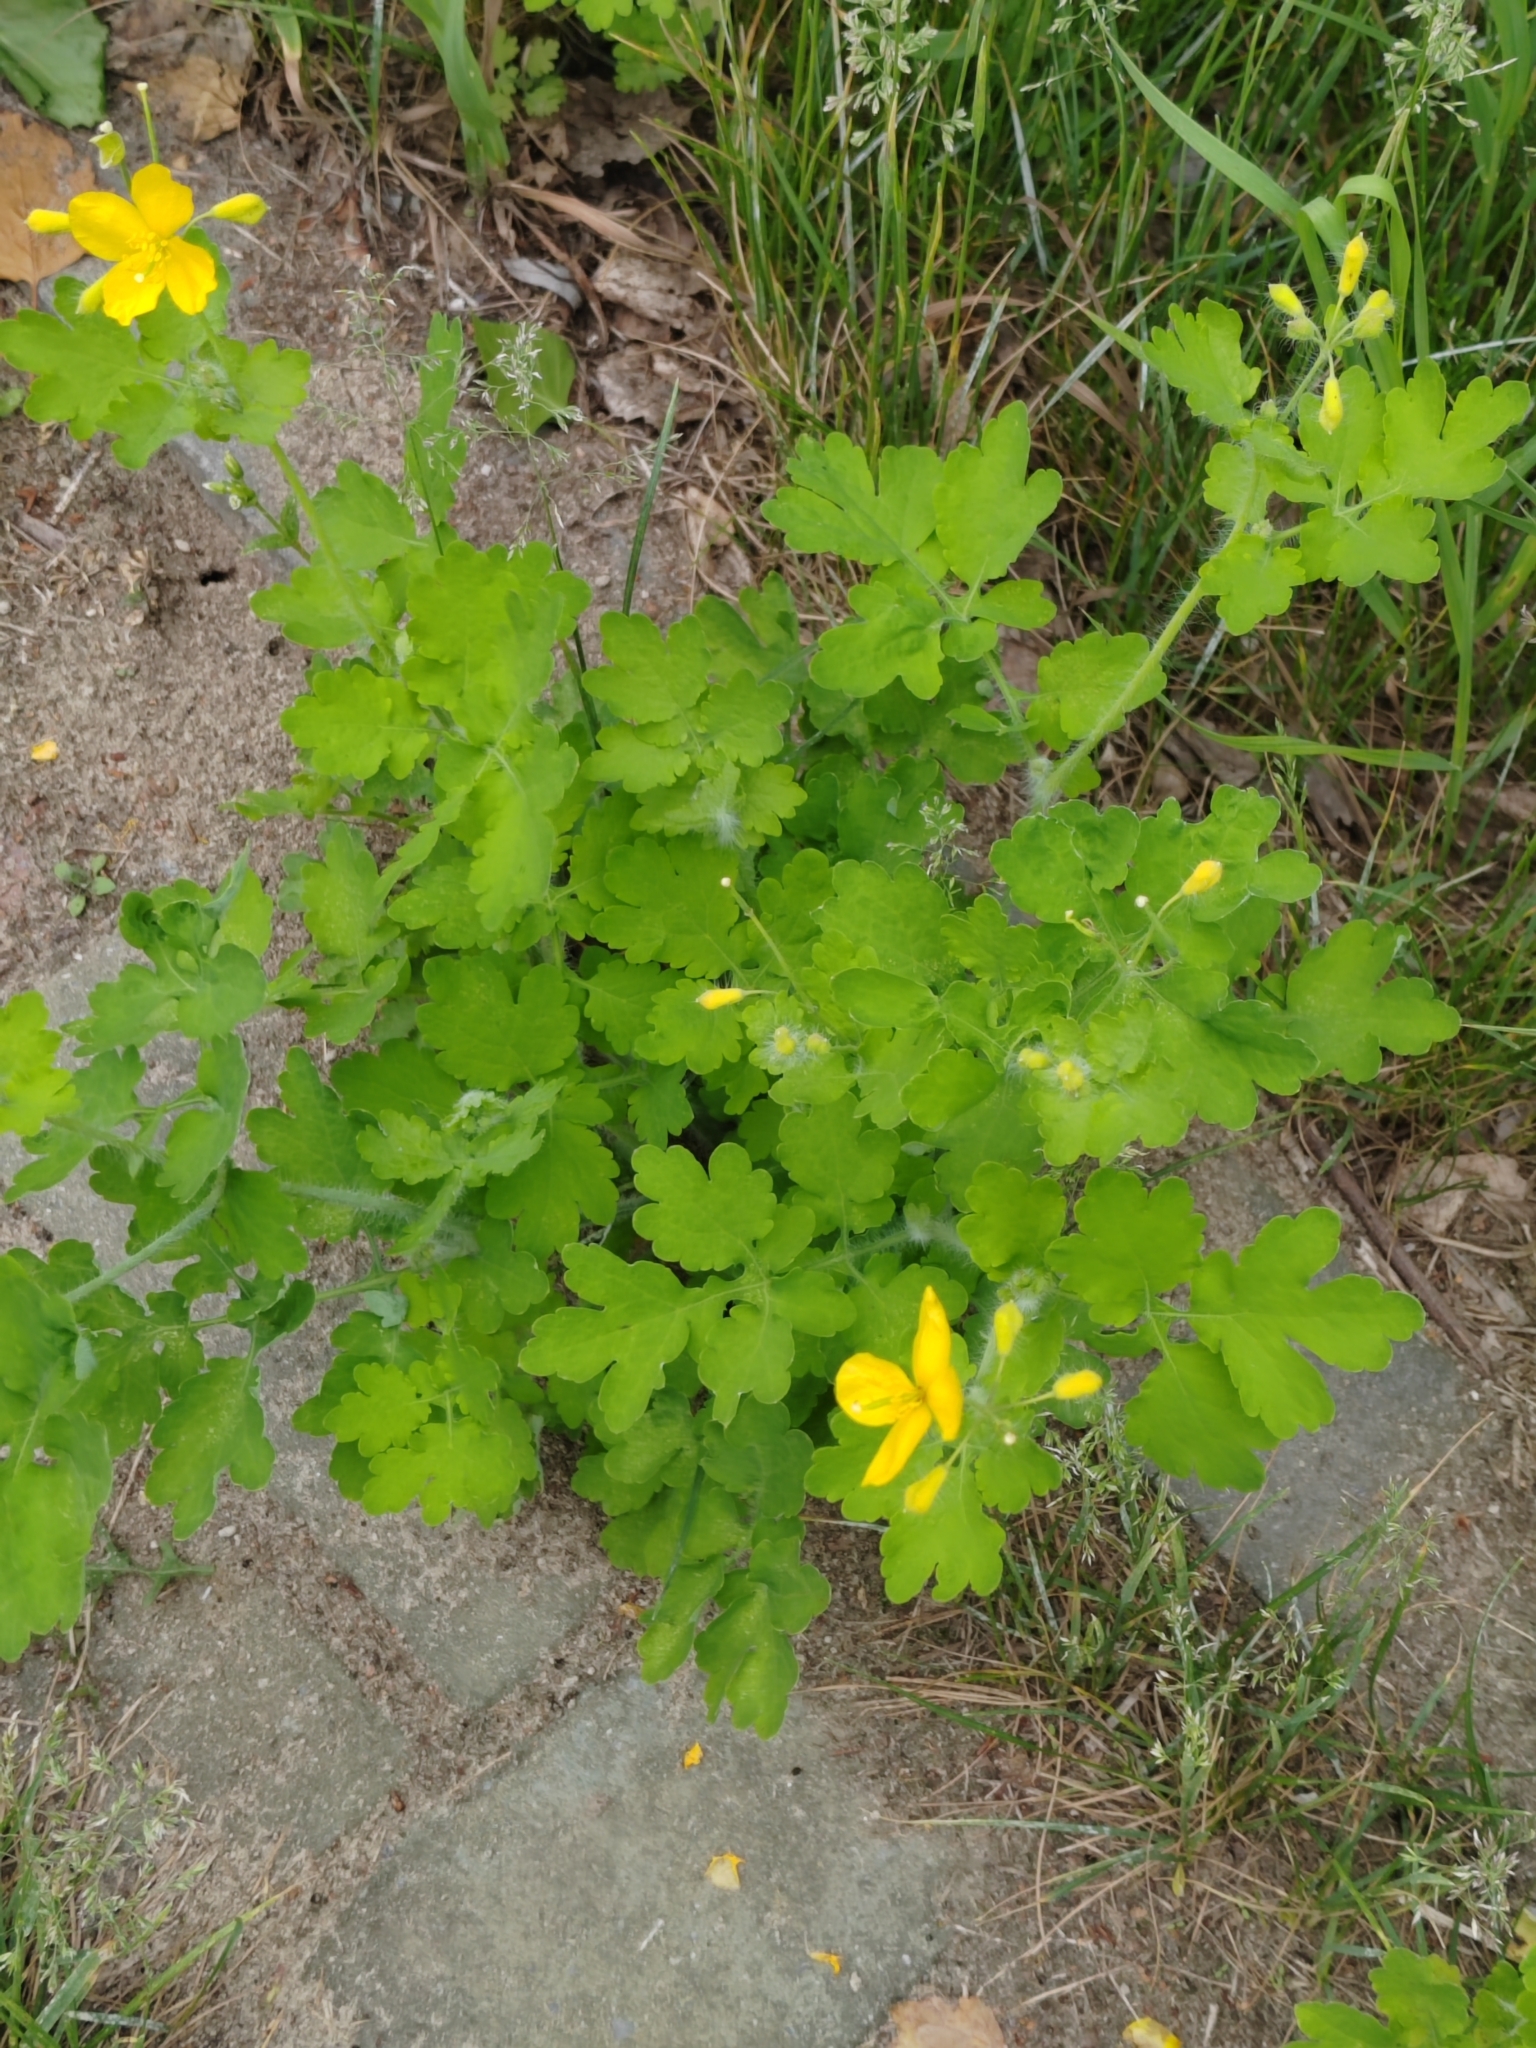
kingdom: Plantae
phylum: Tracheophyta
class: Magnoliopsida
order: Ranunculales
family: Papaveraceae
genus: Chelidonium
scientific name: Chelidonium majus
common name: Greater celandine
